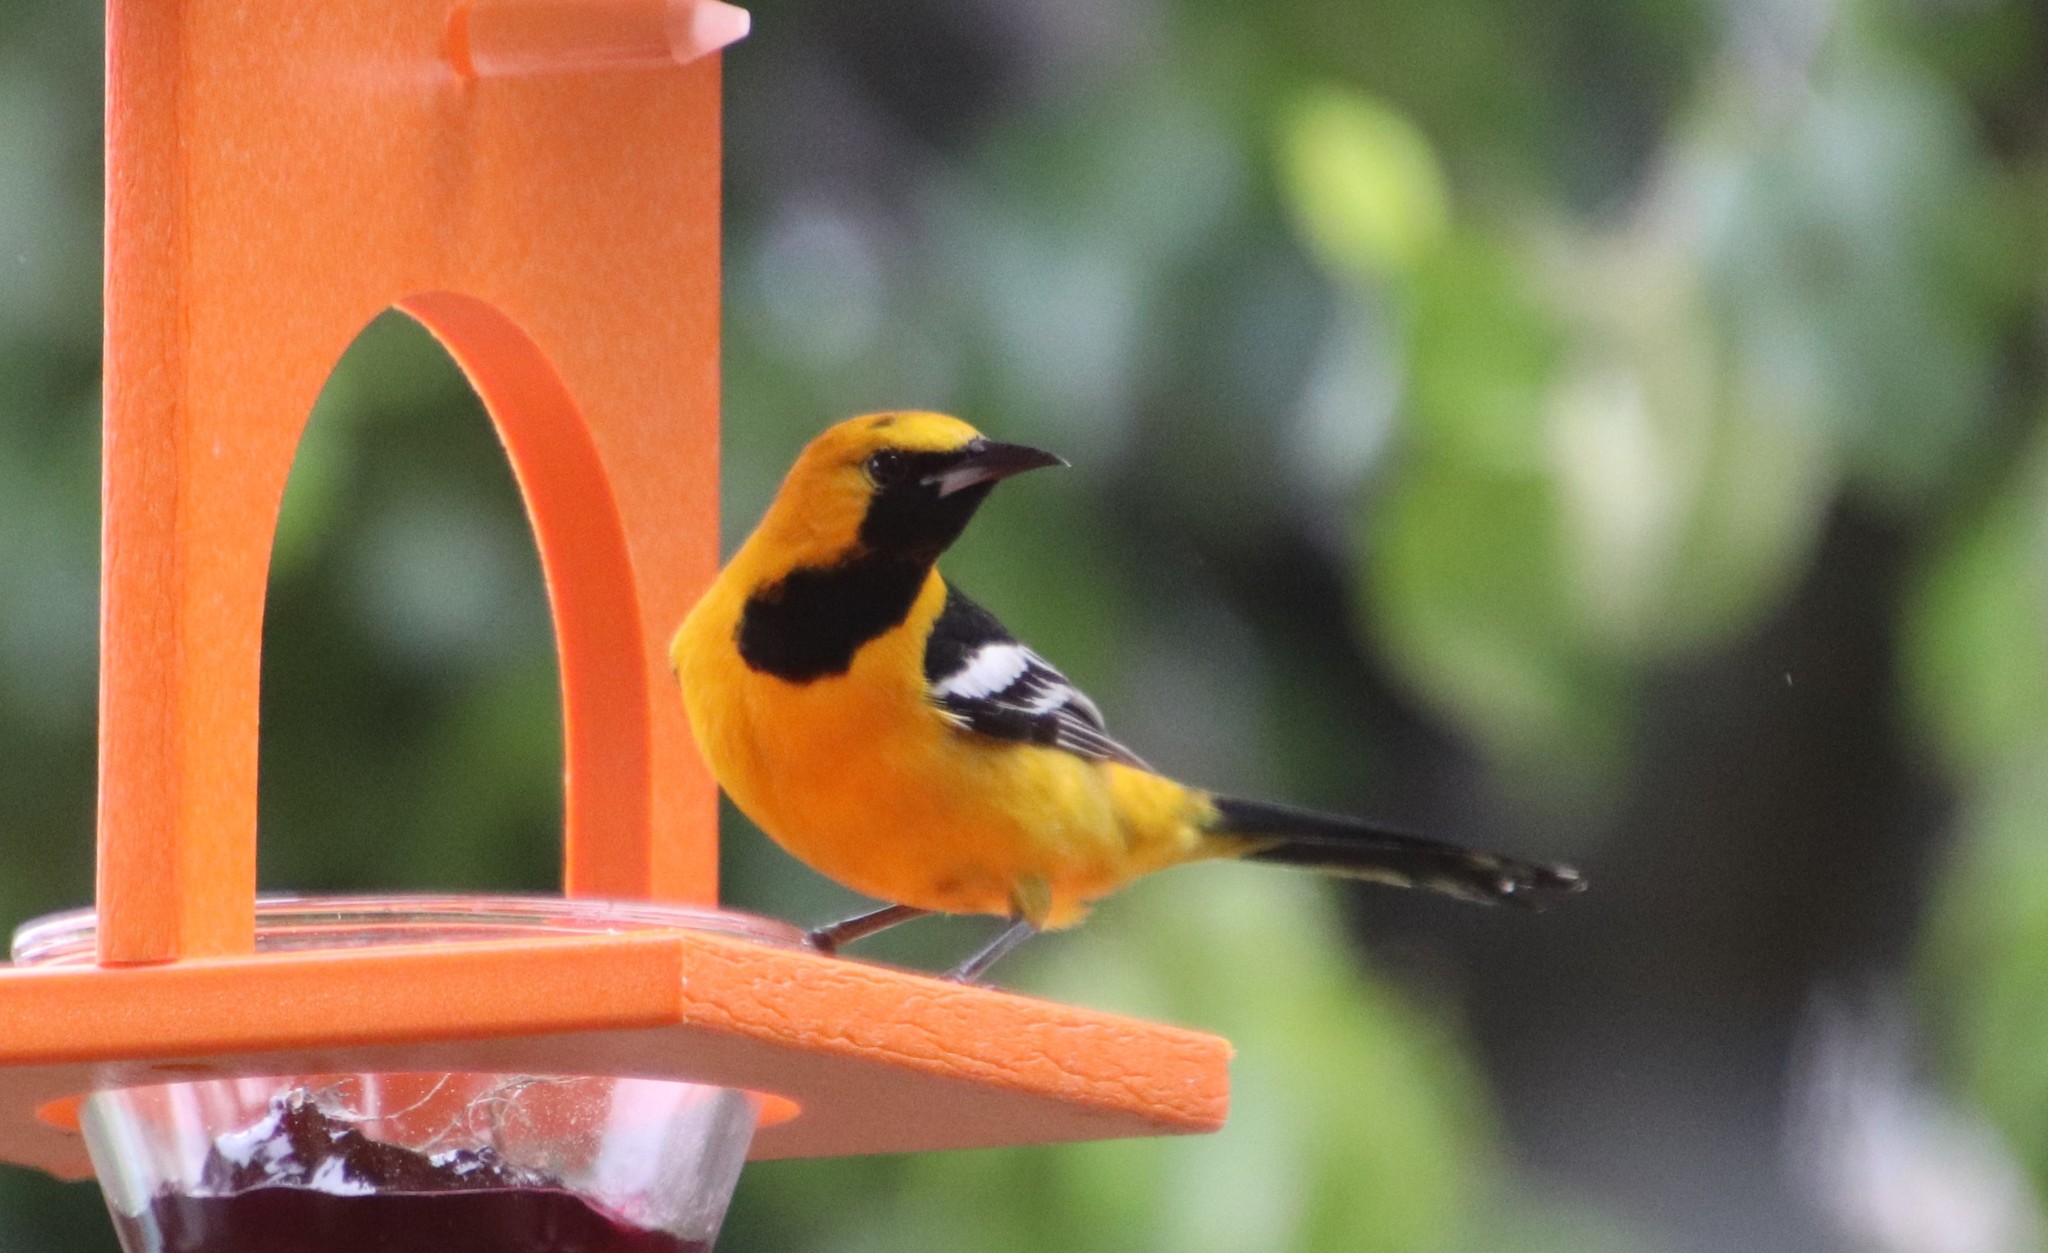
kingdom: Animalia
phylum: Chordata
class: Aves
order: Passeriformes
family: Icteridae
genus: Icterus
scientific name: Icterus cucullatus
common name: Hooded oriole
